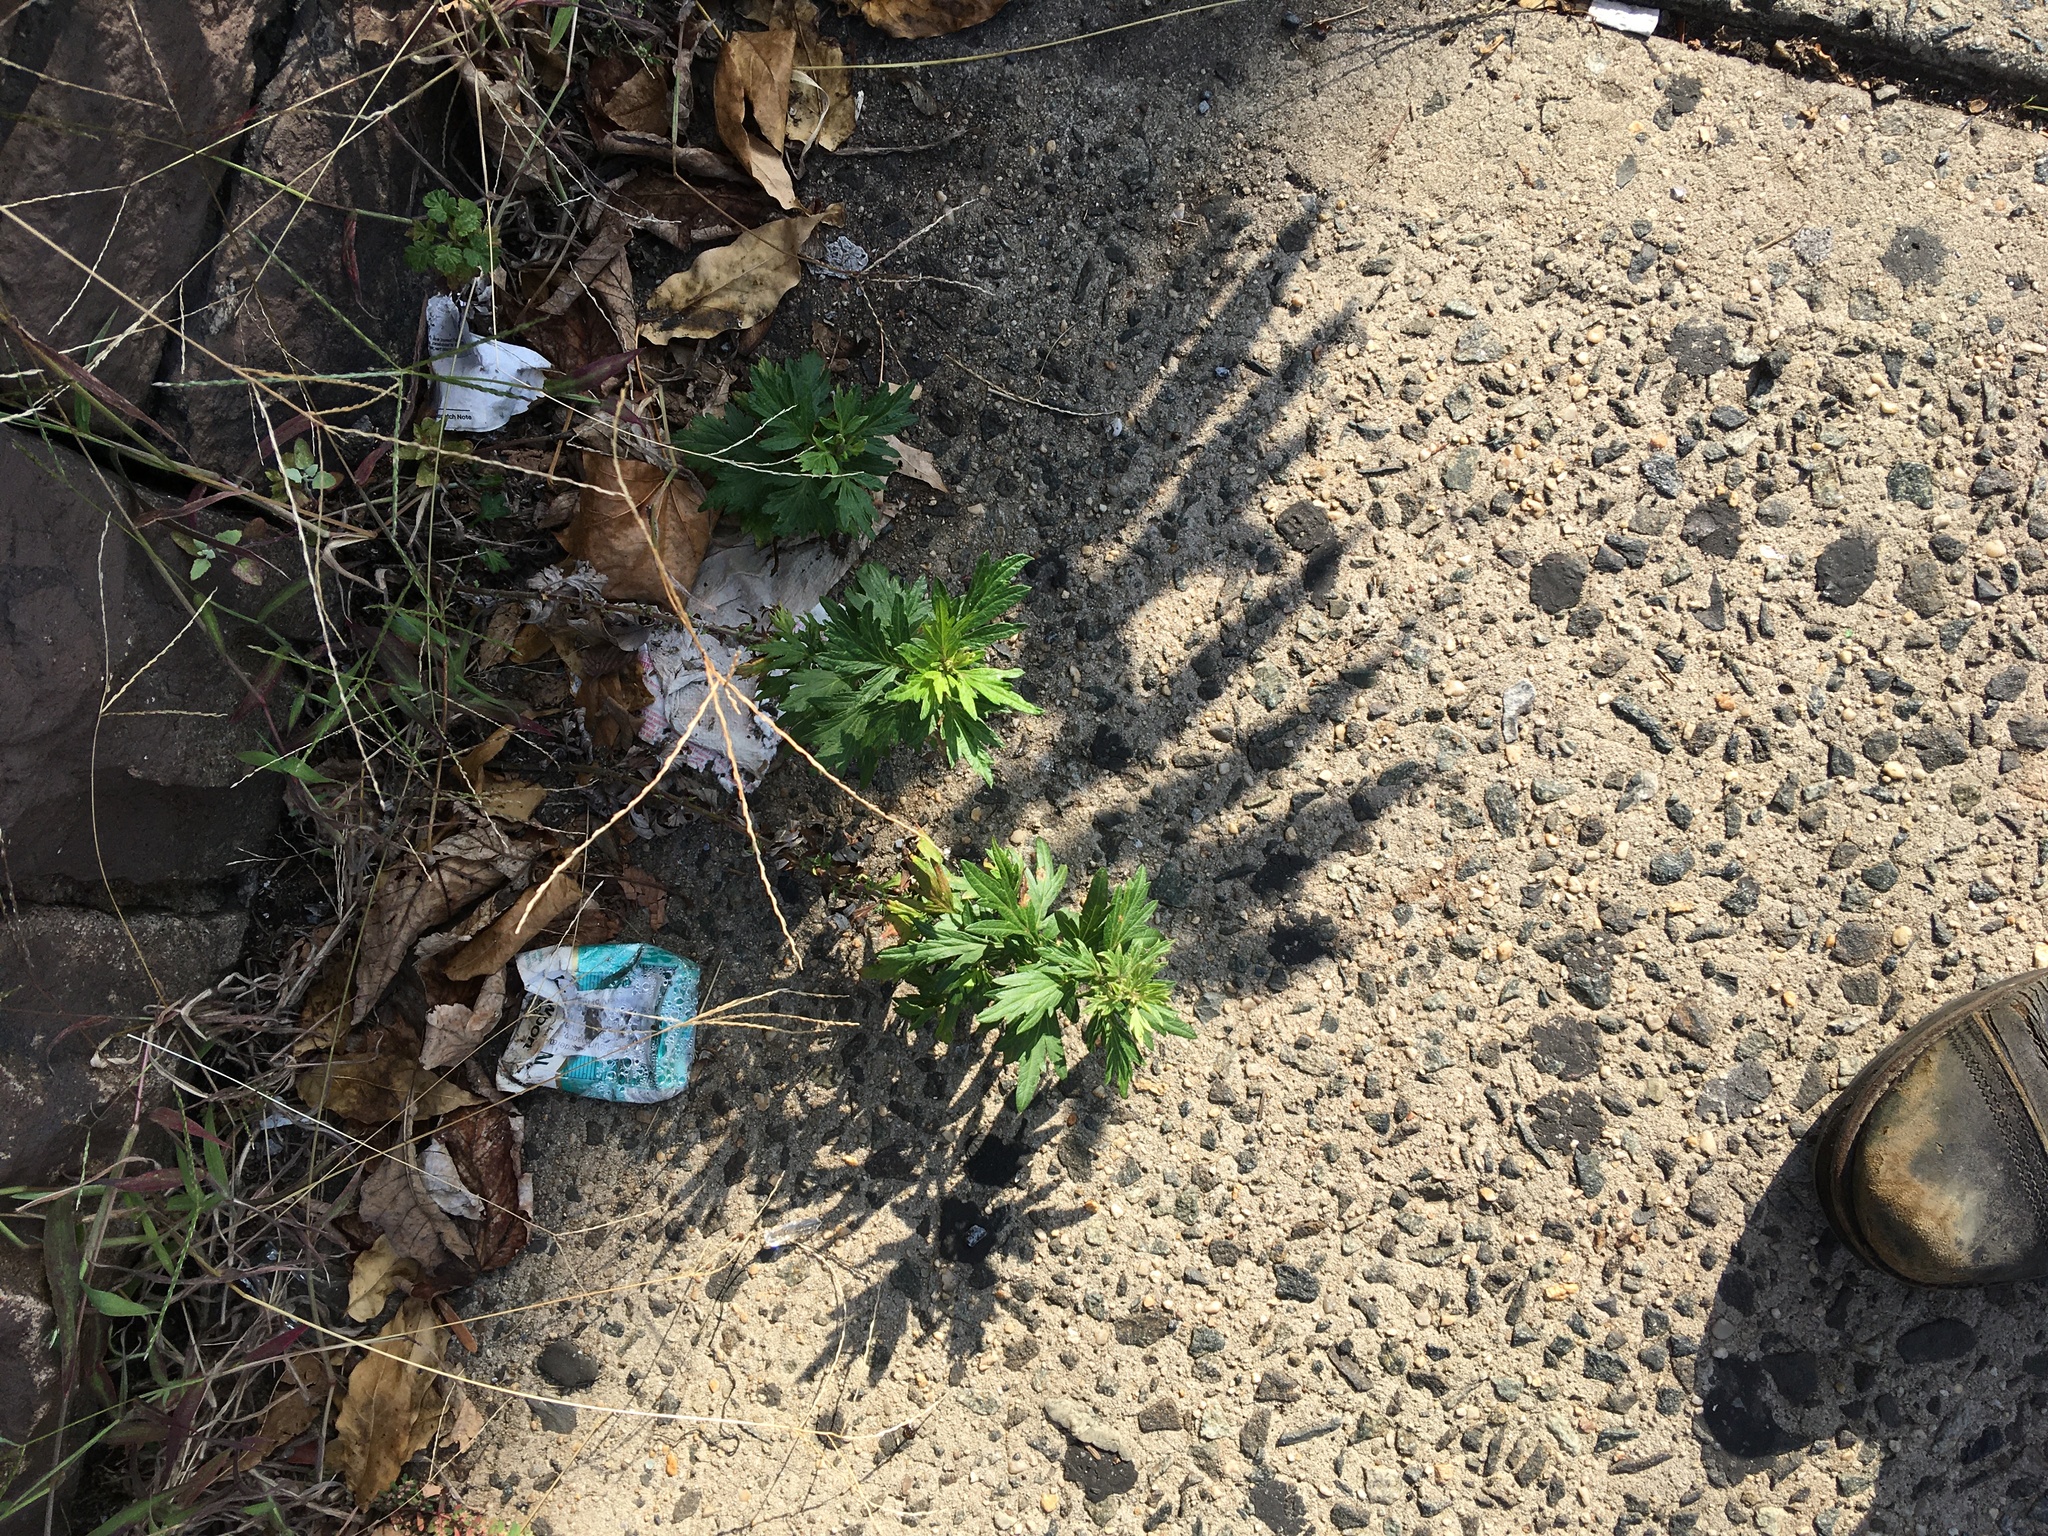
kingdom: Plantae
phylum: Tracheophyta
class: Magnoliopsida
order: Asterales
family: Asteraceae
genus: Artemisia
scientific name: Artemisia vulgaris
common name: Mugwort
